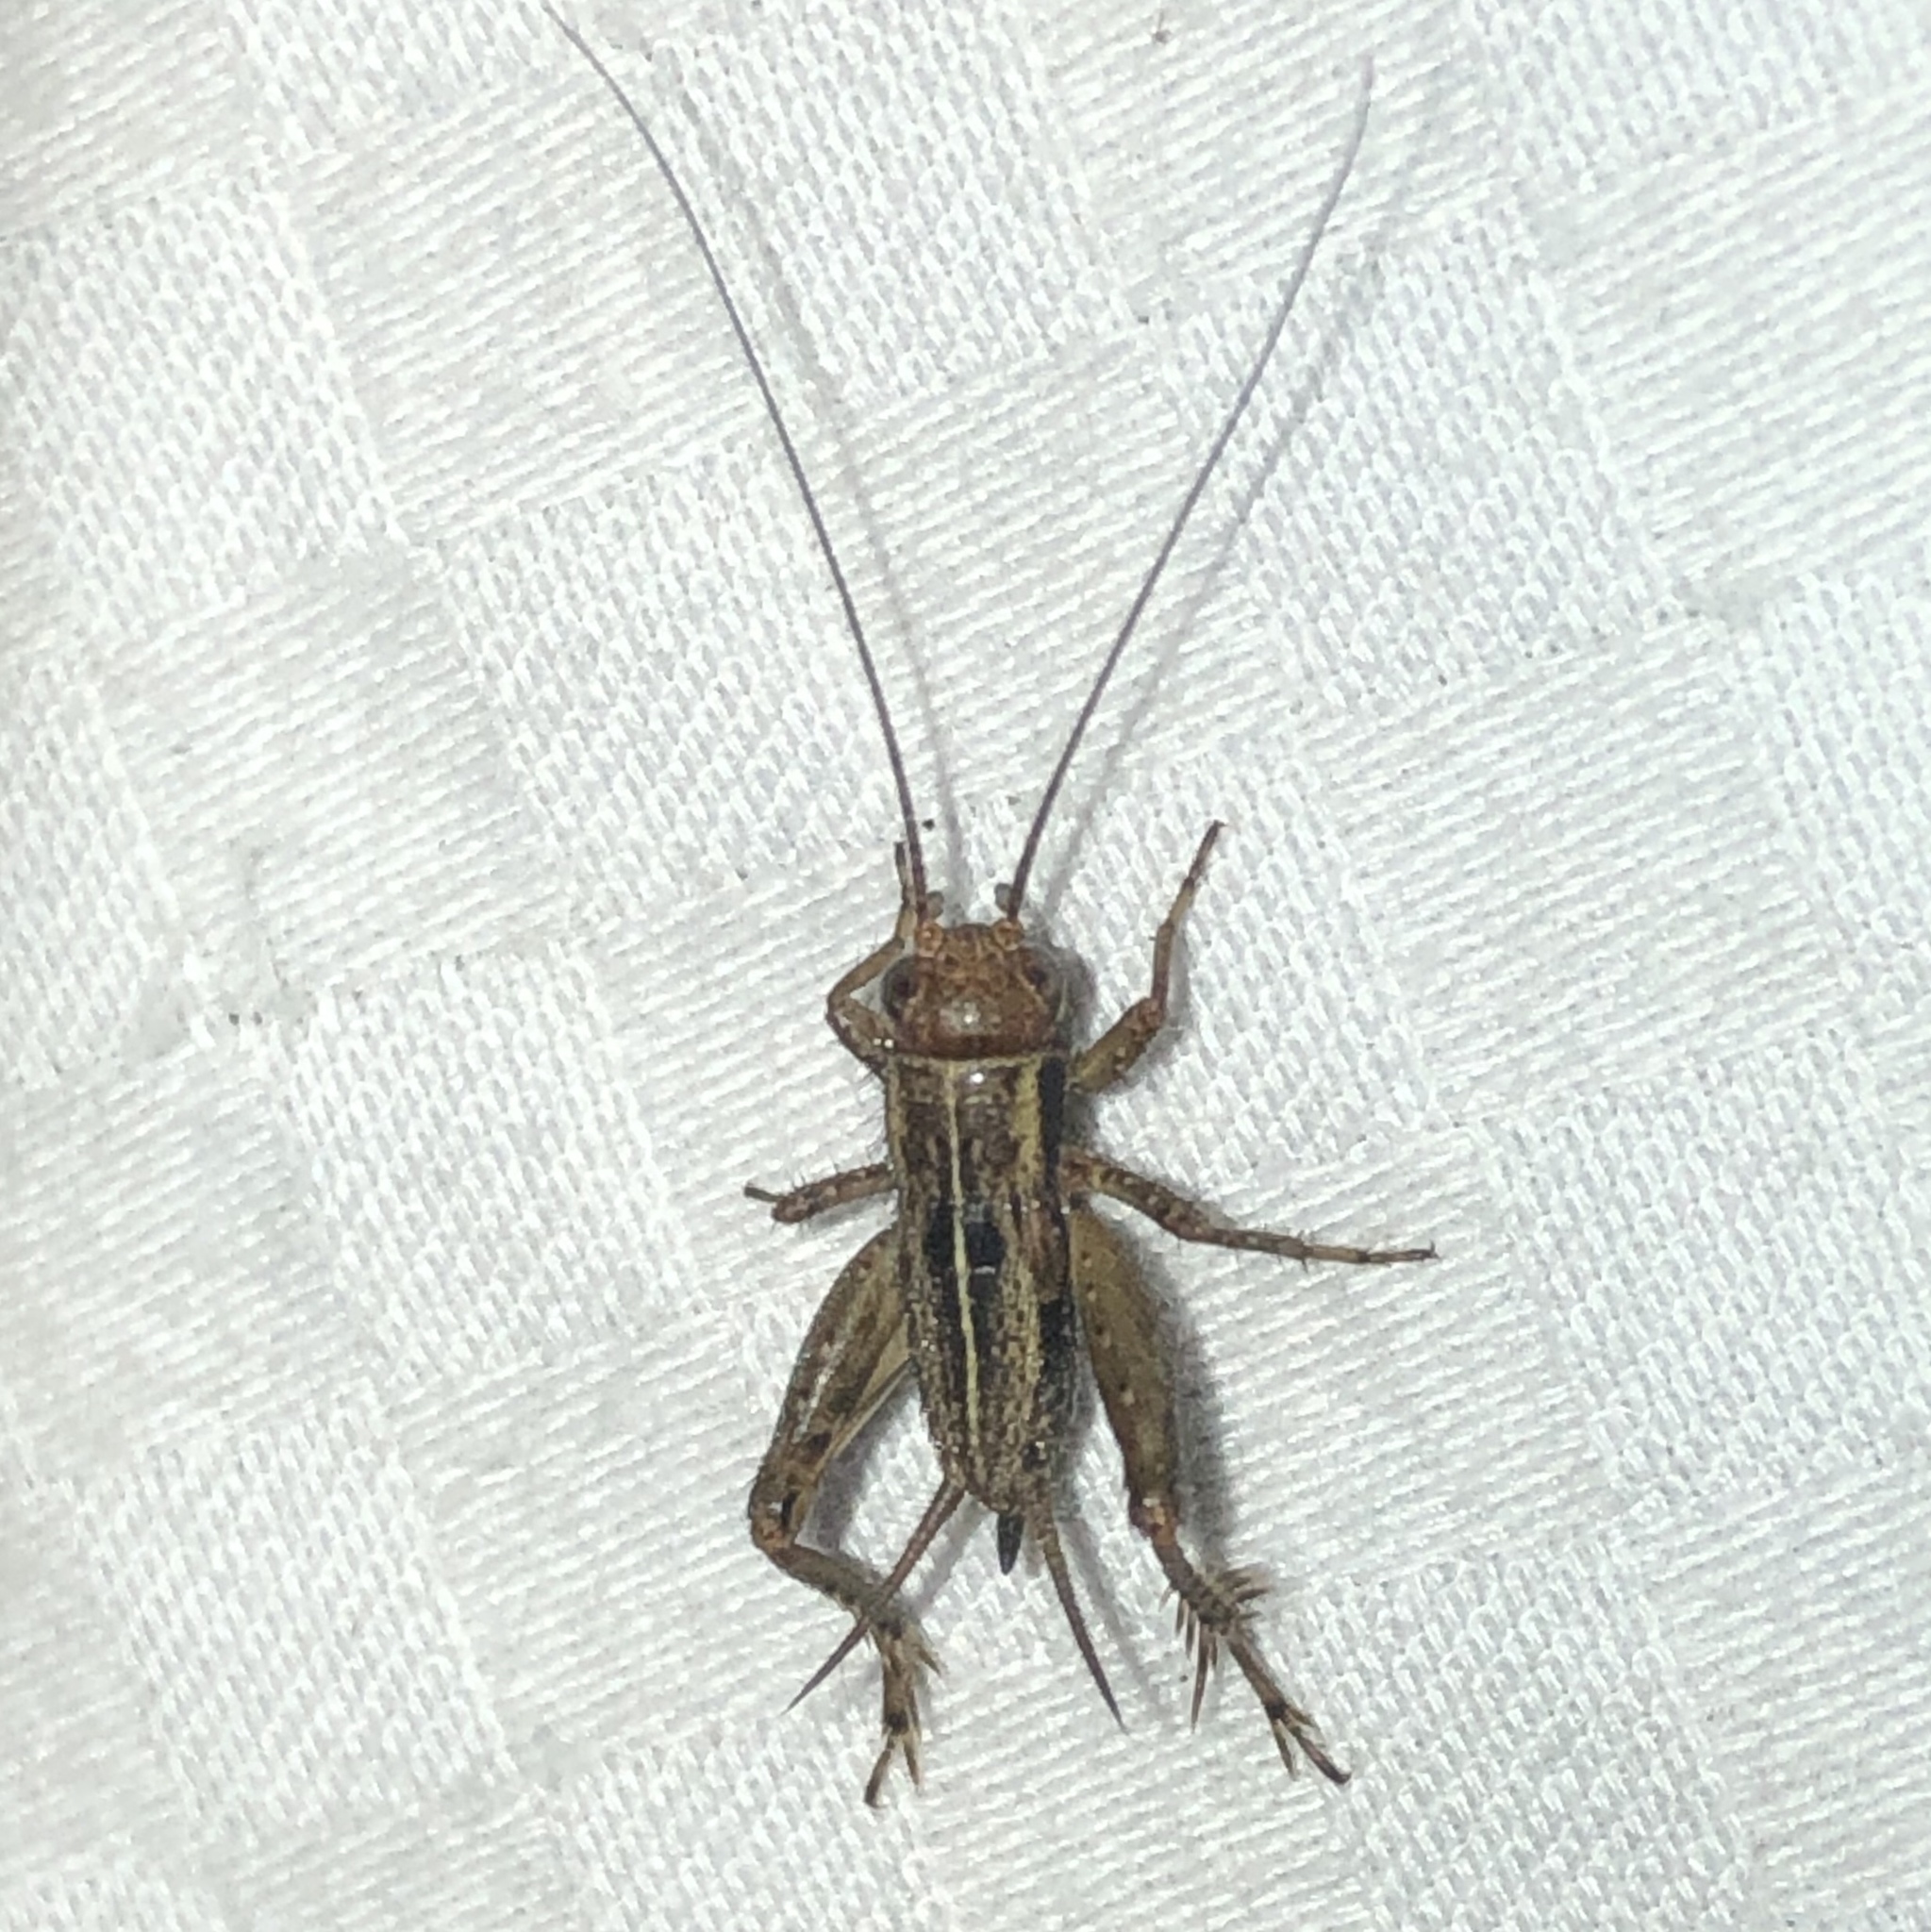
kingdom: Animalia
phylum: Arthropoda
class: Insecta
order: Orthoptera
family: Trigonidiidae
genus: Allonemobius
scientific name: Allonemobius fasciatus
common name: Striped ground cricket
